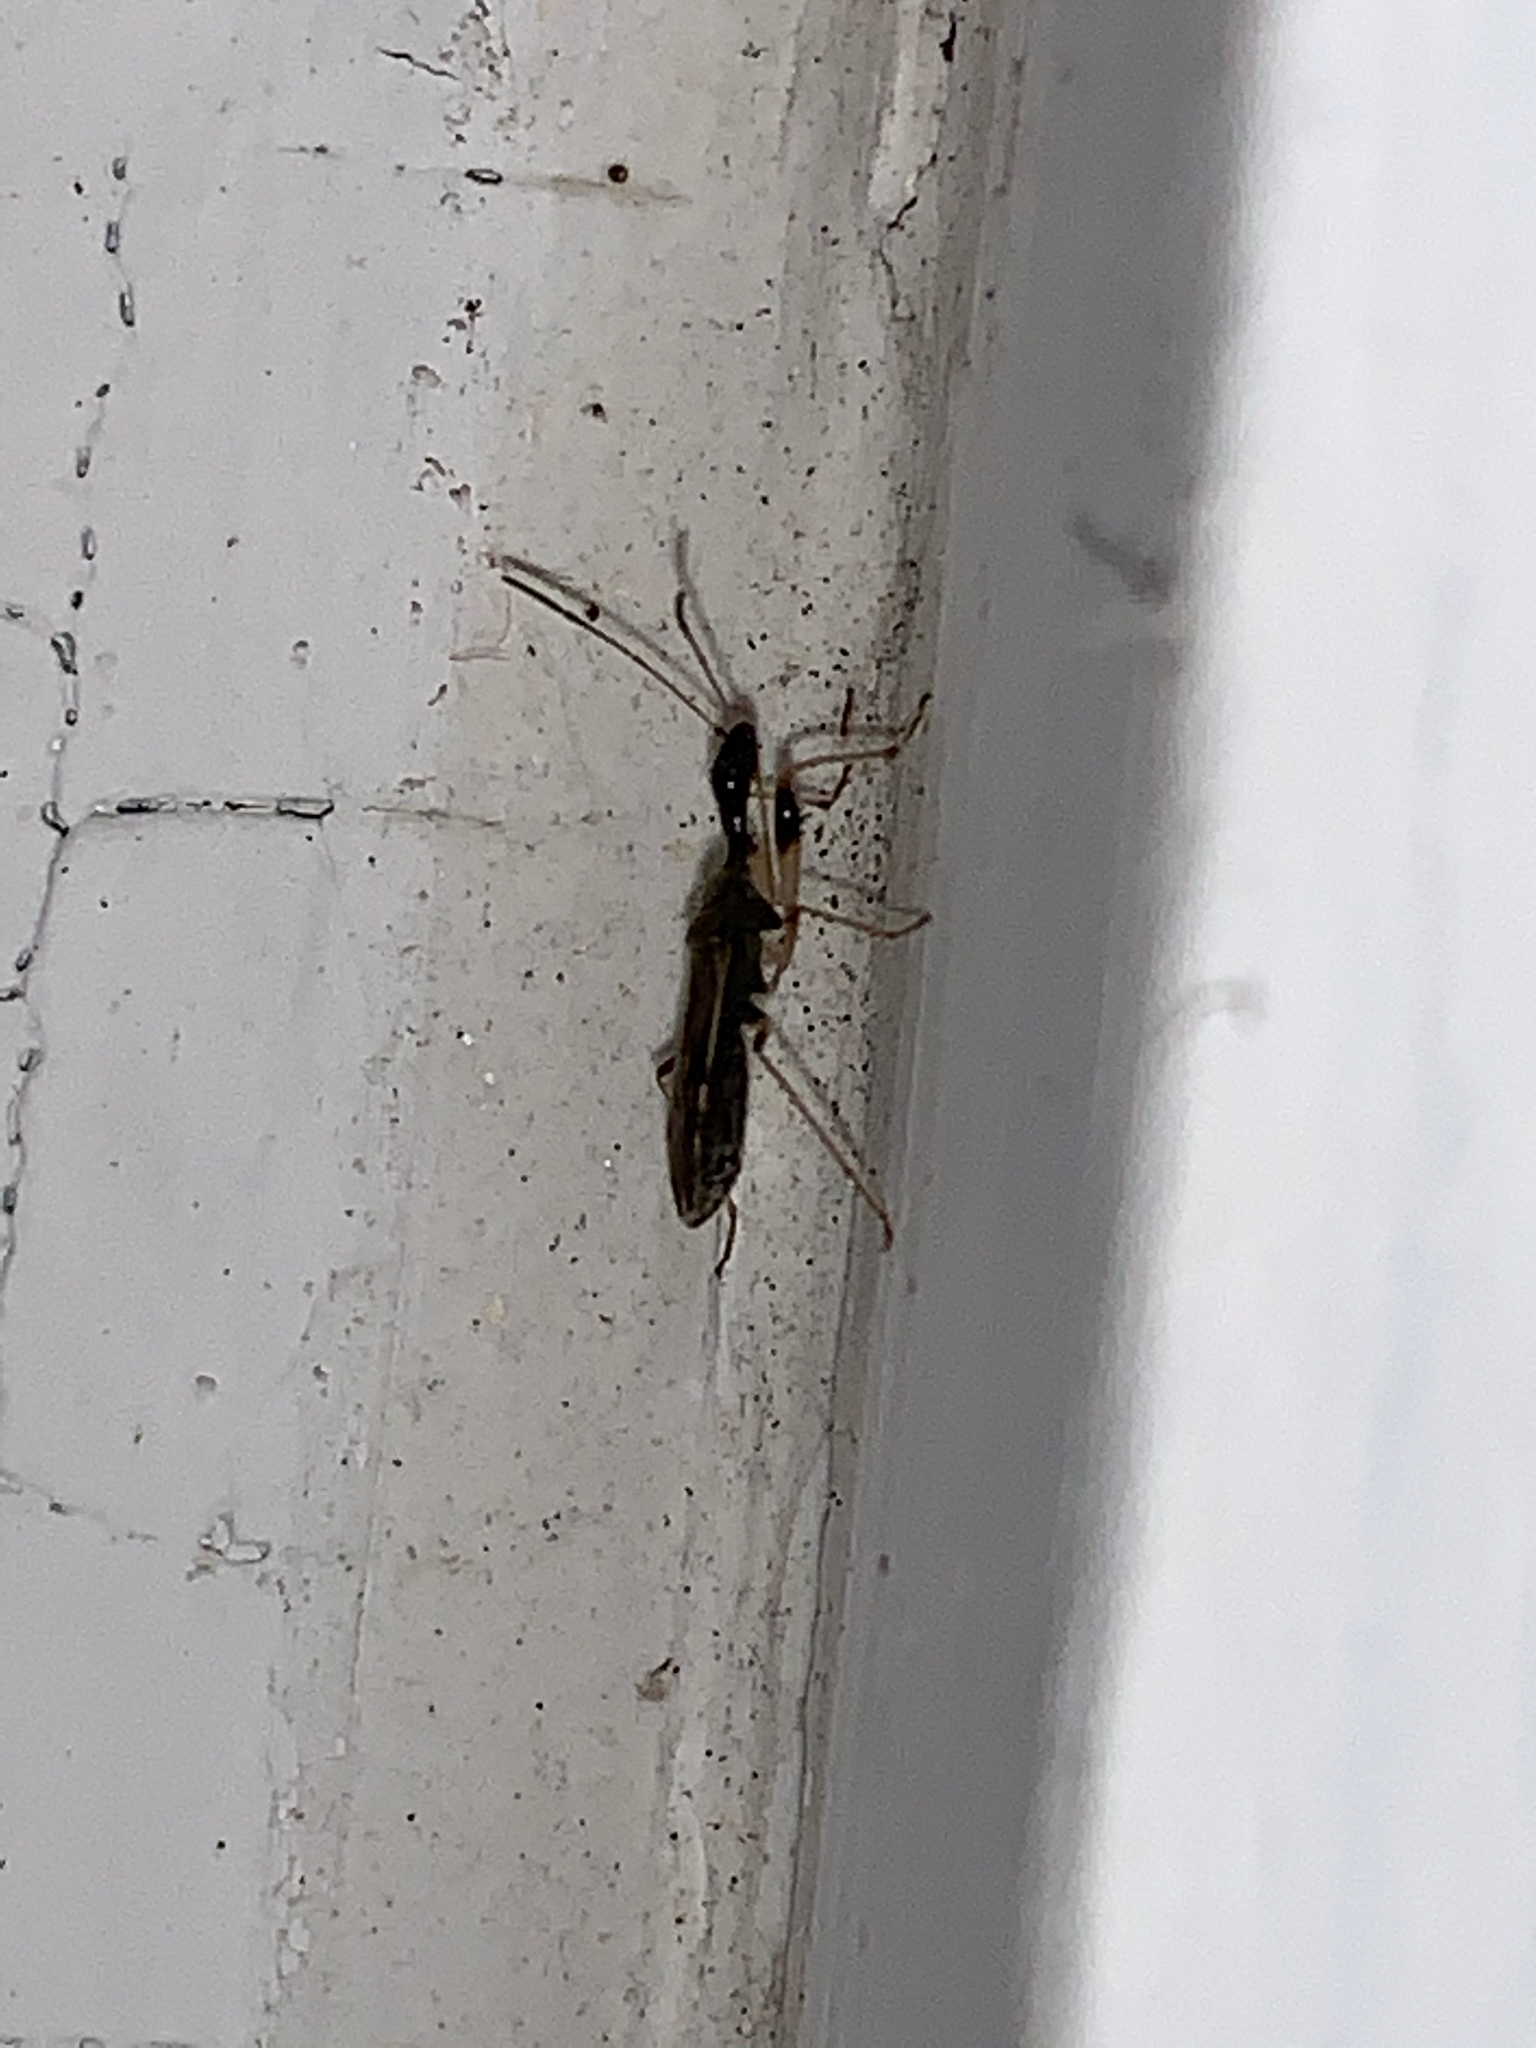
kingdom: Animalia
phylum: Arthropoda
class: Insecta
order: Hemiptera
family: Rhyparochromidae
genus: Myodocha
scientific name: Myodocha serripes
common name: Long-necked seed bug
